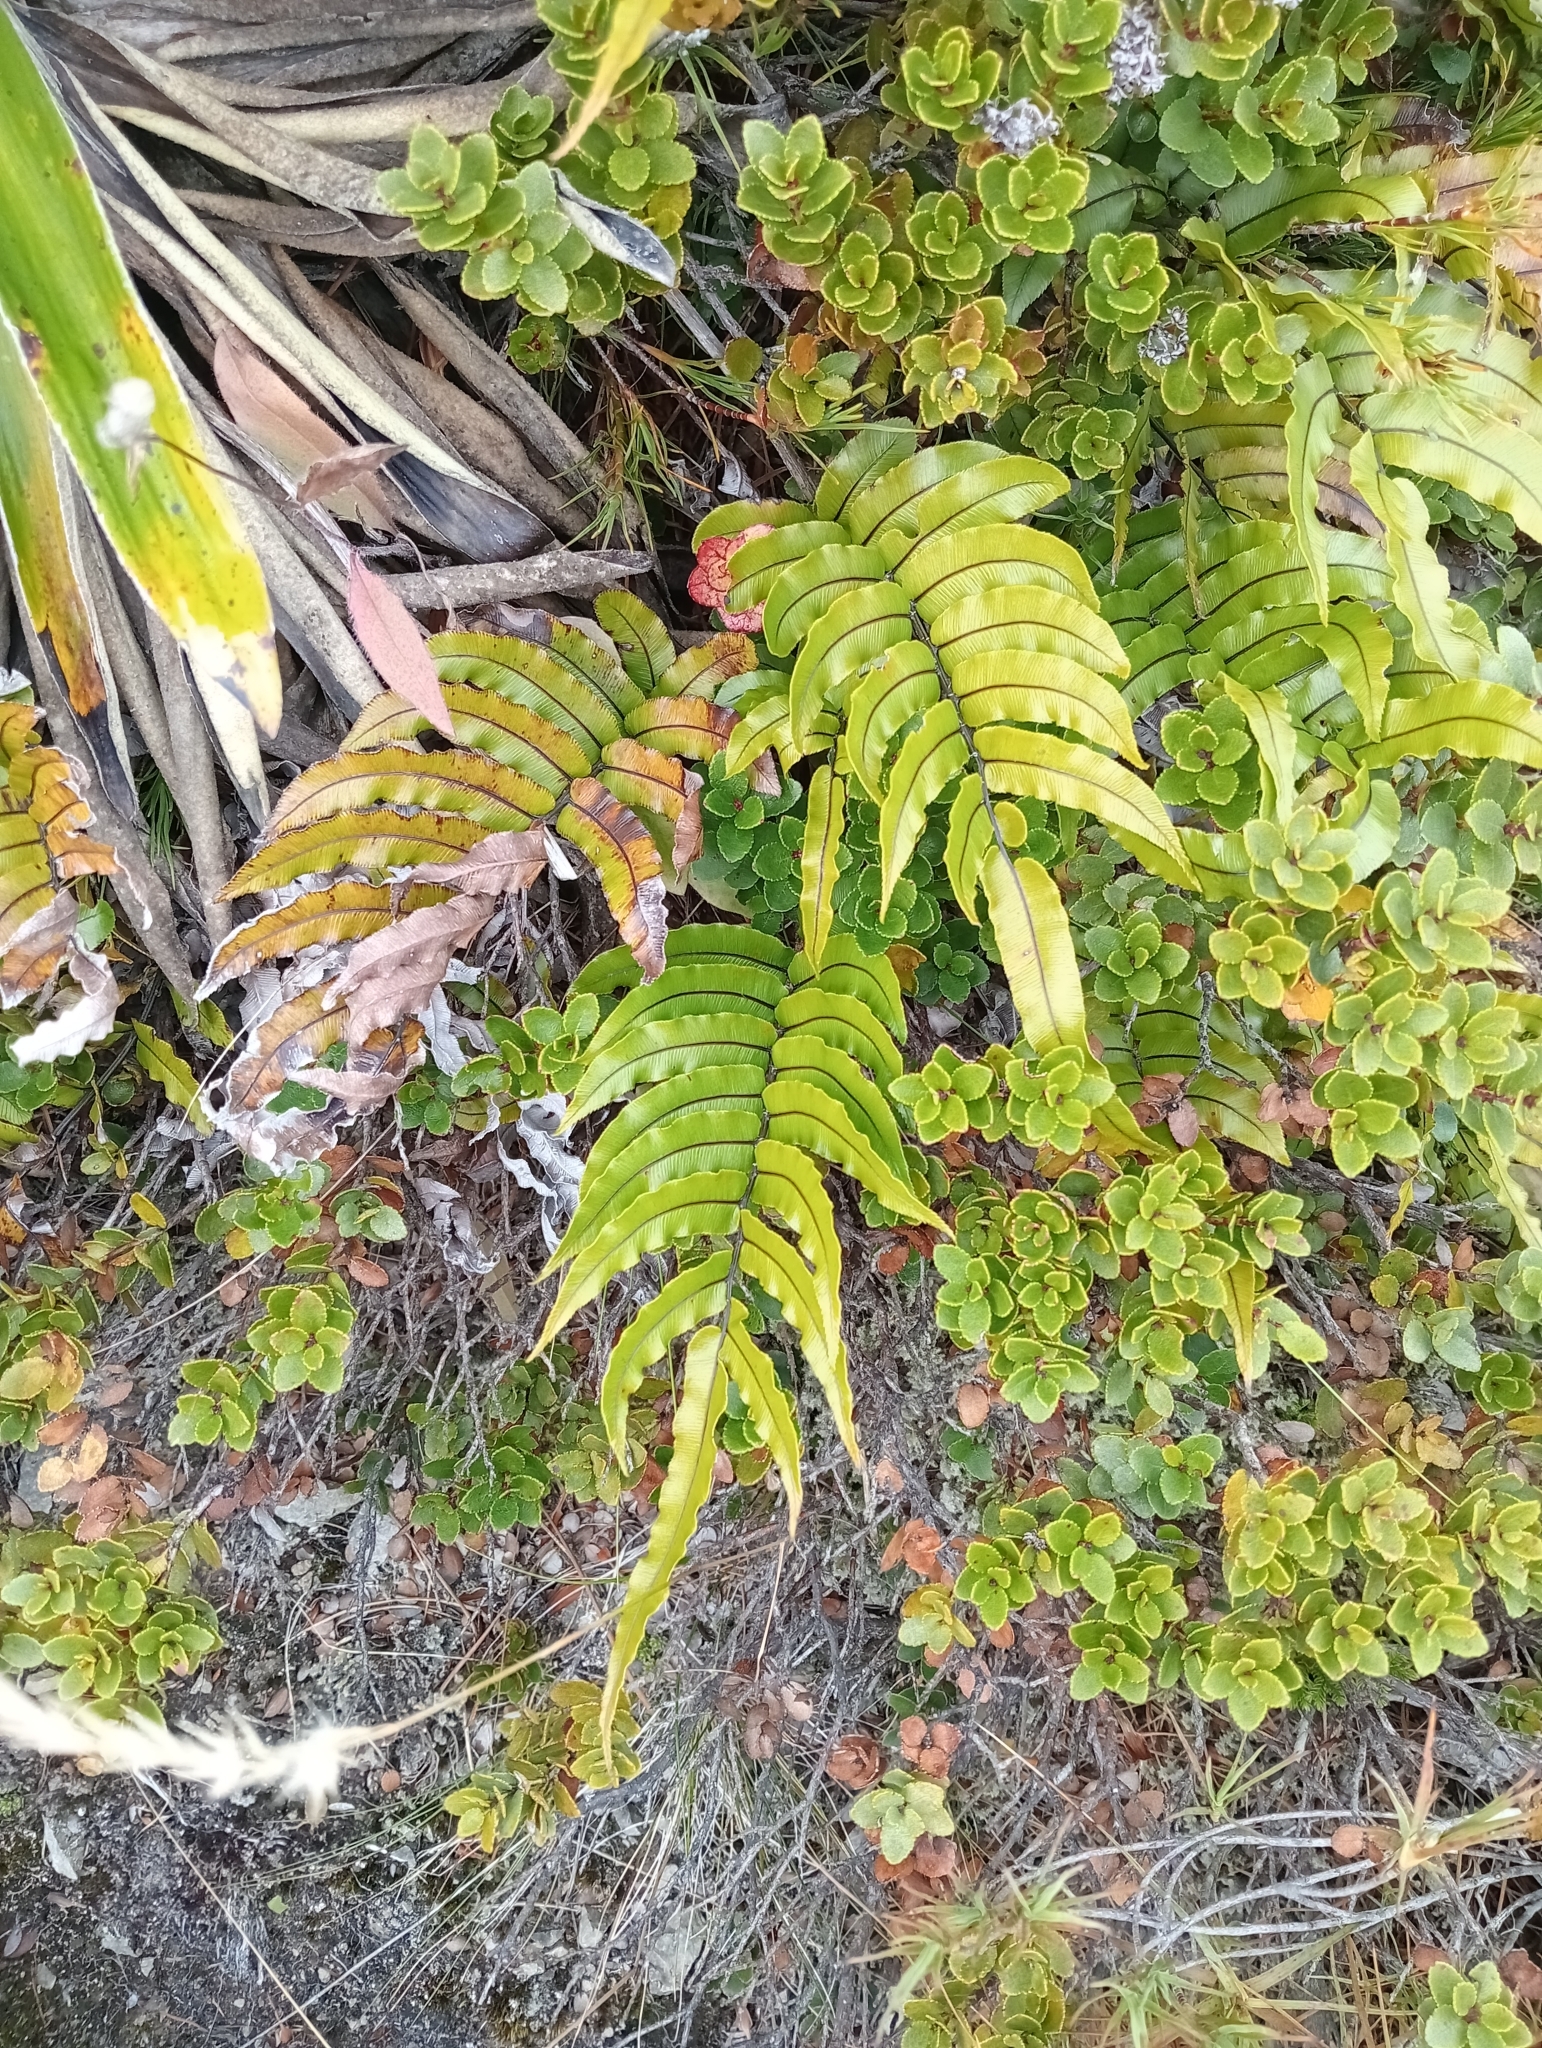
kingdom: Plantae
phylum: Tracheophyta
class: Polypodiopsida
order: Polypodiales
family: Blechnaceae
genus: Parablechnum
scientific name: Parablechnum montanum
